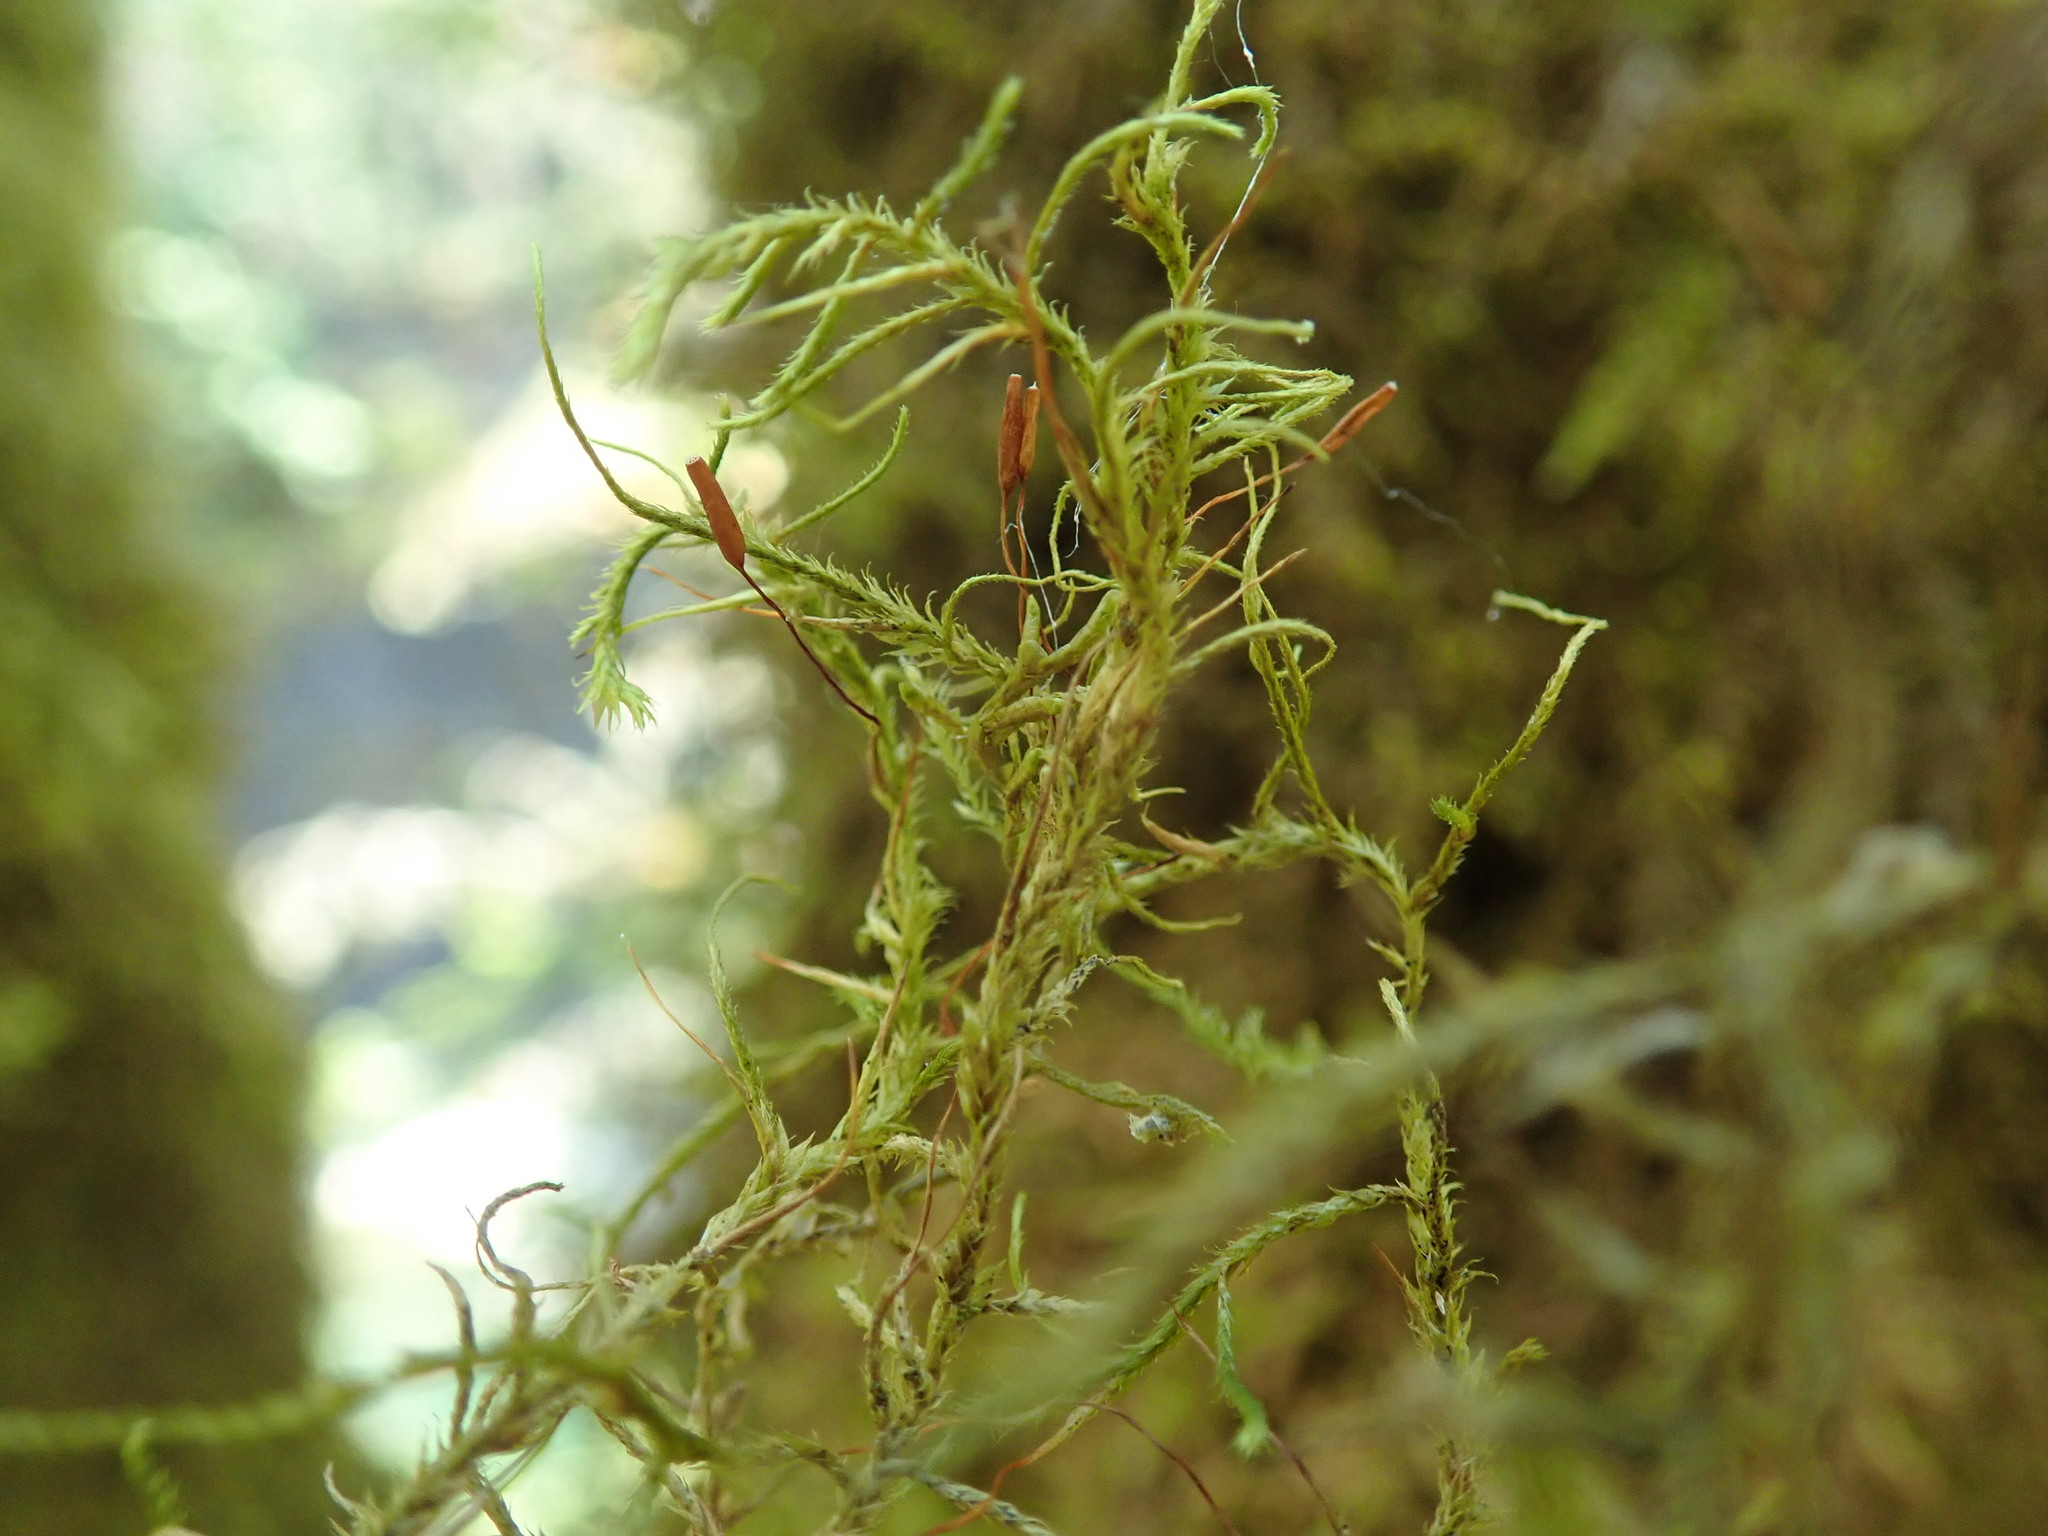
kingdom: Plantae
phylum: Bryophyta
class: Bryopsida
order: Hypnales
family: Antitrichiaceae
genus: Antitrichia
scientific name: Antitrichia californica
